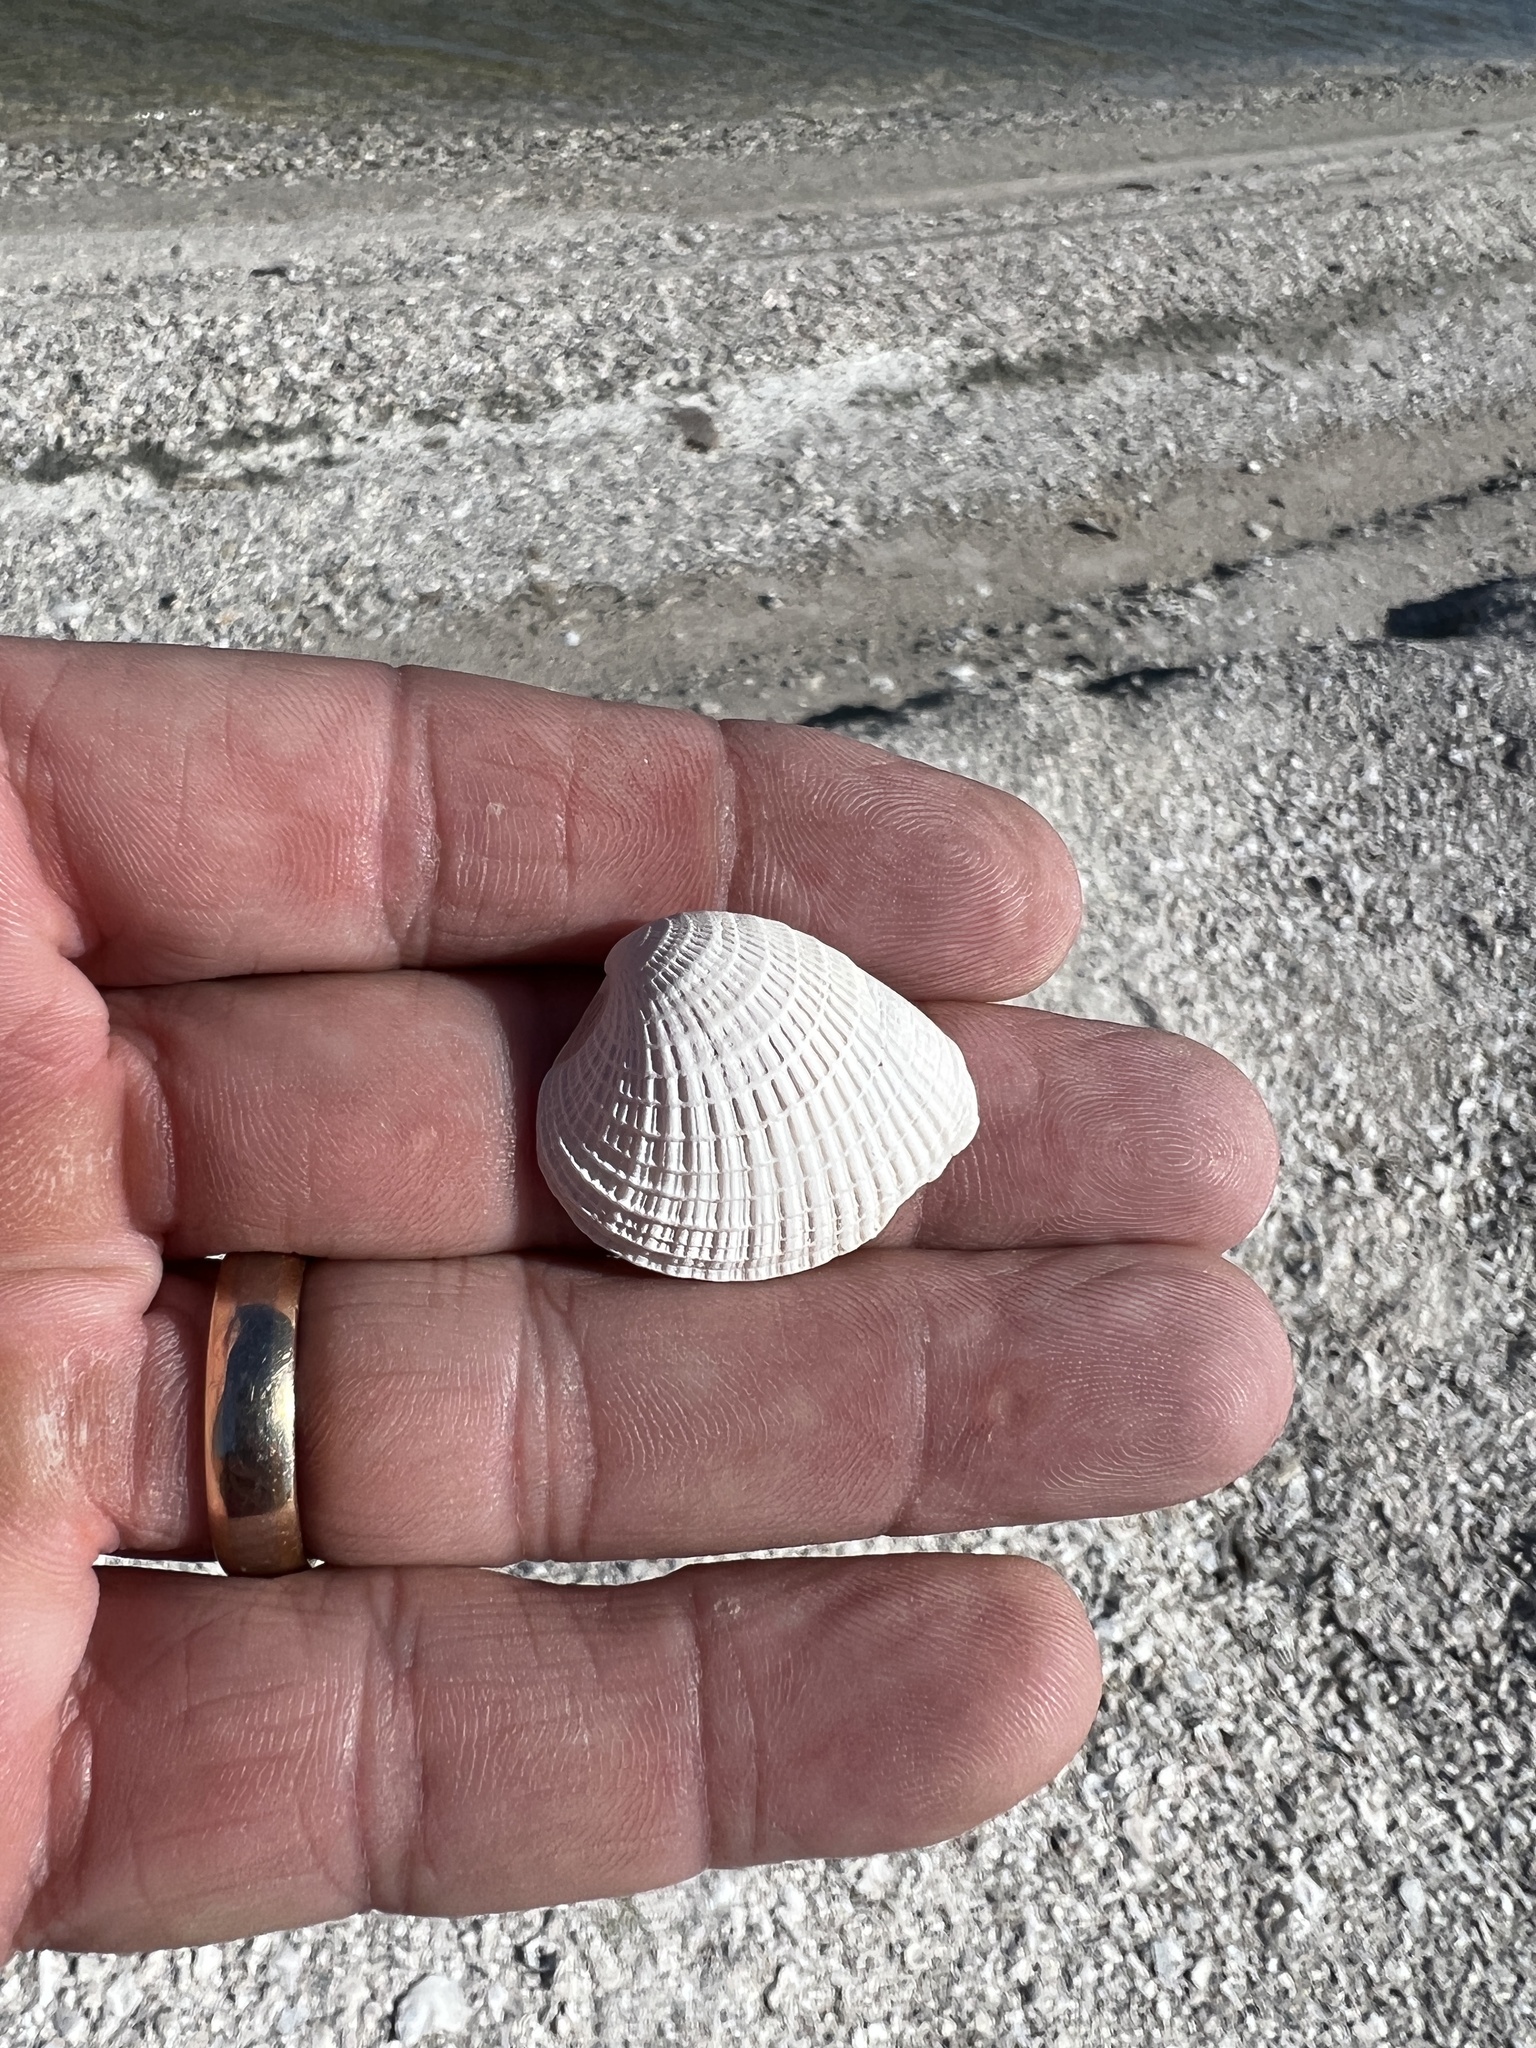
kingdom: Animalia
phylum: Mollusca
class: Bivalvia
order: Venerida
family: Veneridae
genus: Chione
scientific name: Chione elevata
